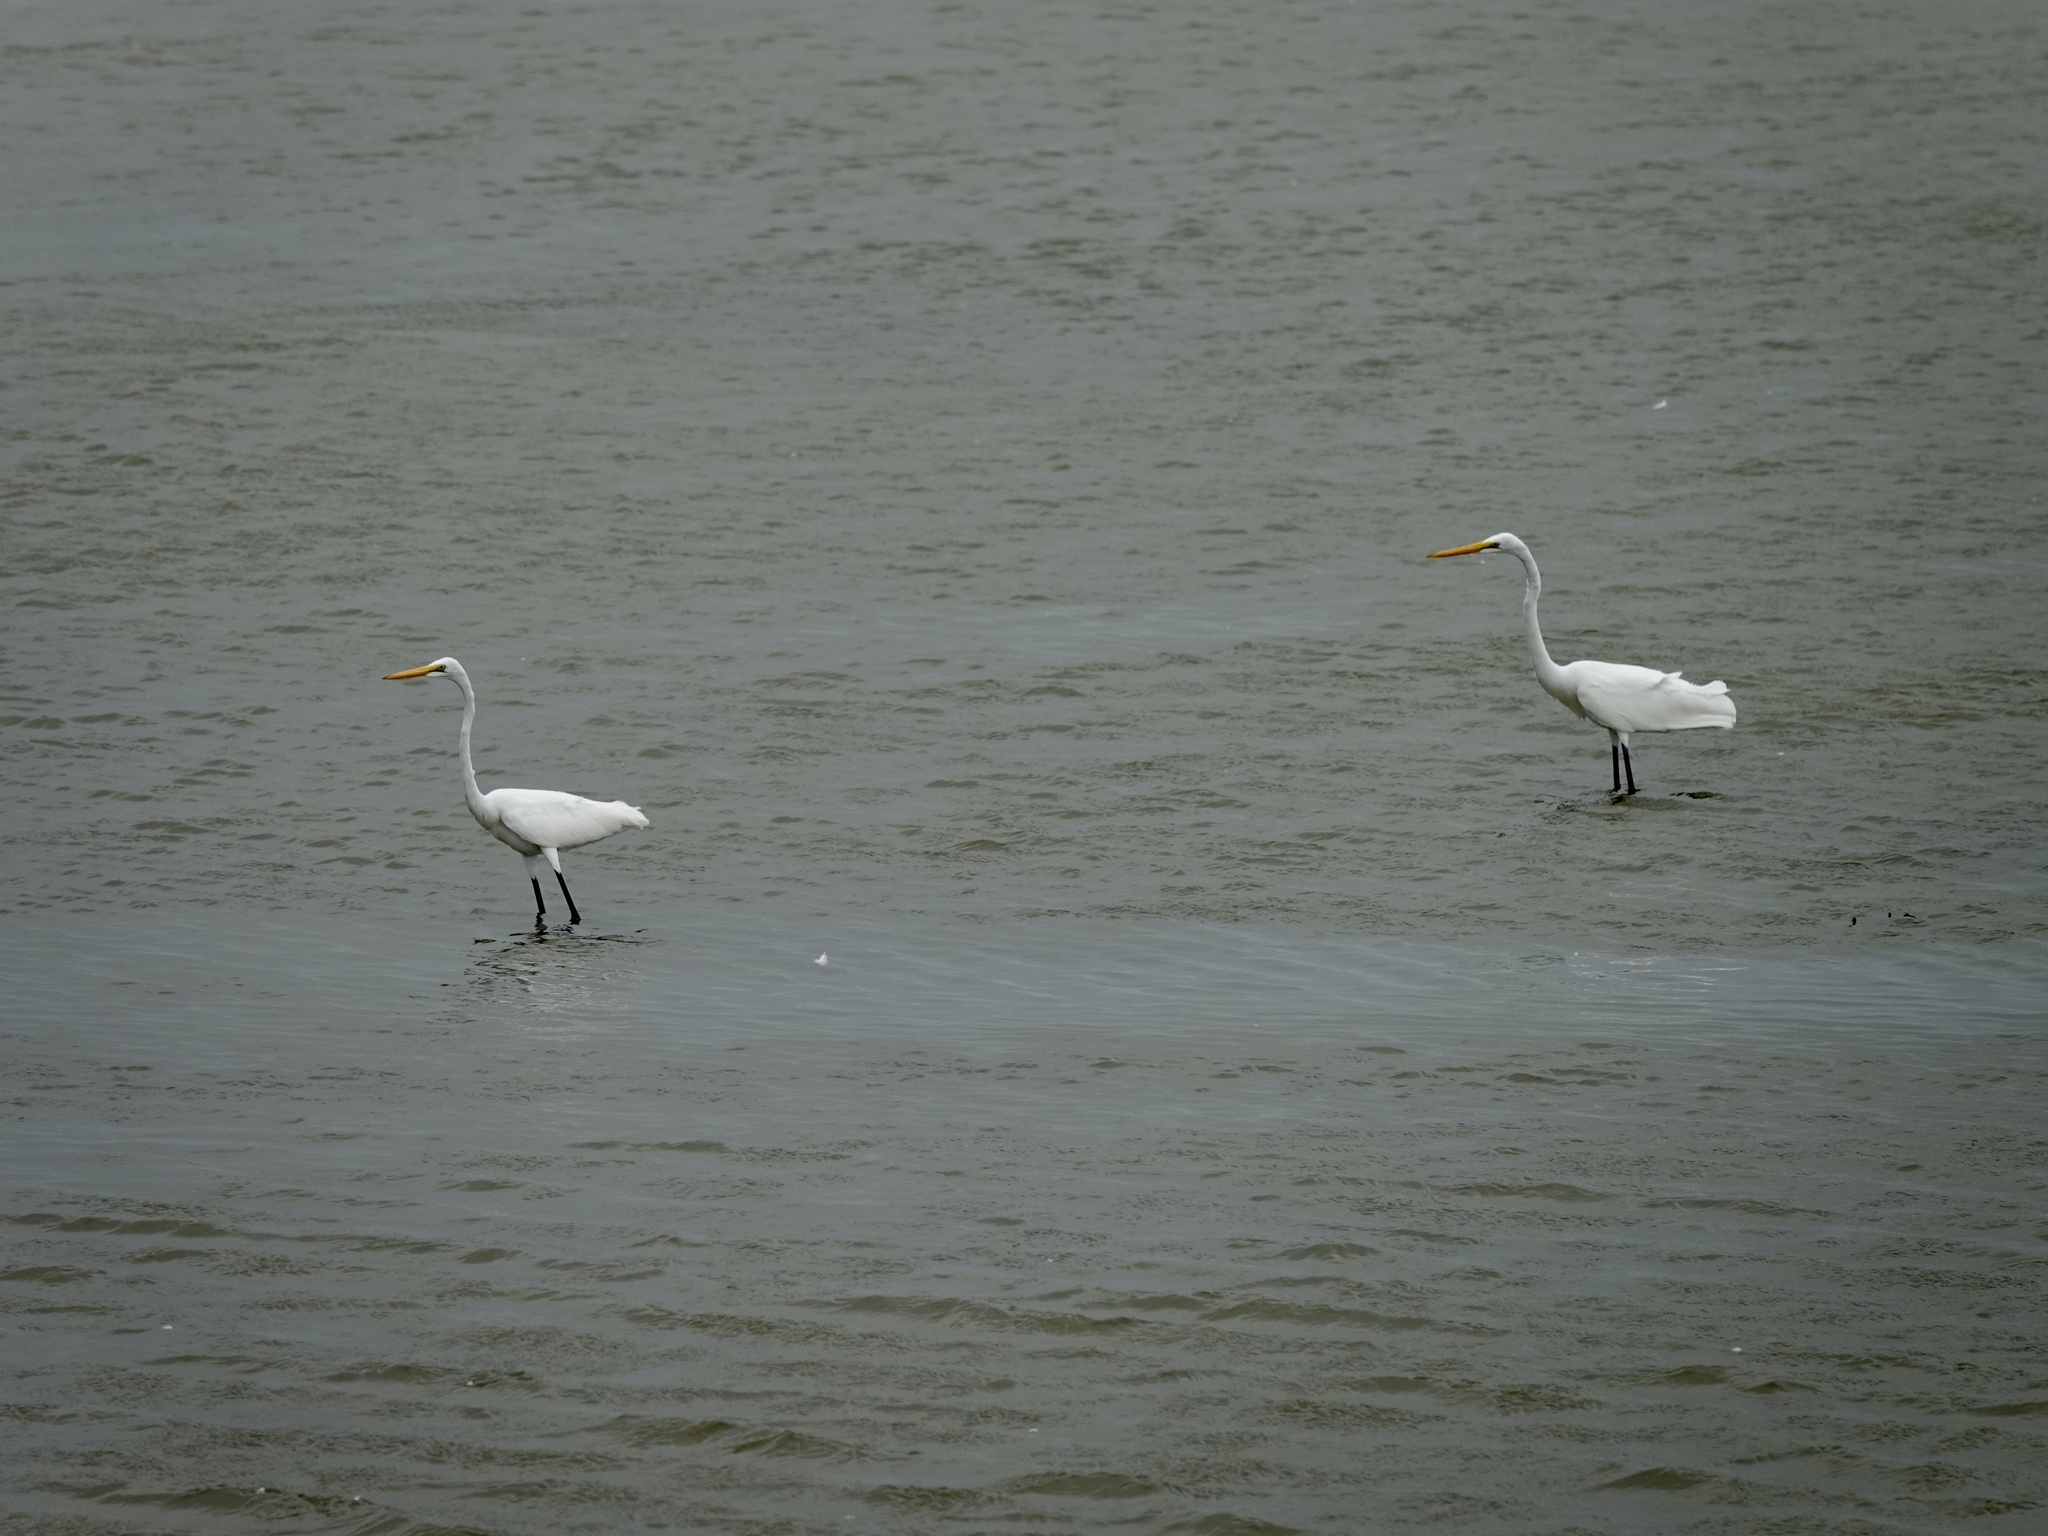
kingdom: Animalia
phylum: Chordata
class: Aves
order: Pelecaniformes
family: Ardeidae
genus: Ardea
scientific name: Ardea alba
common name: Great egret
